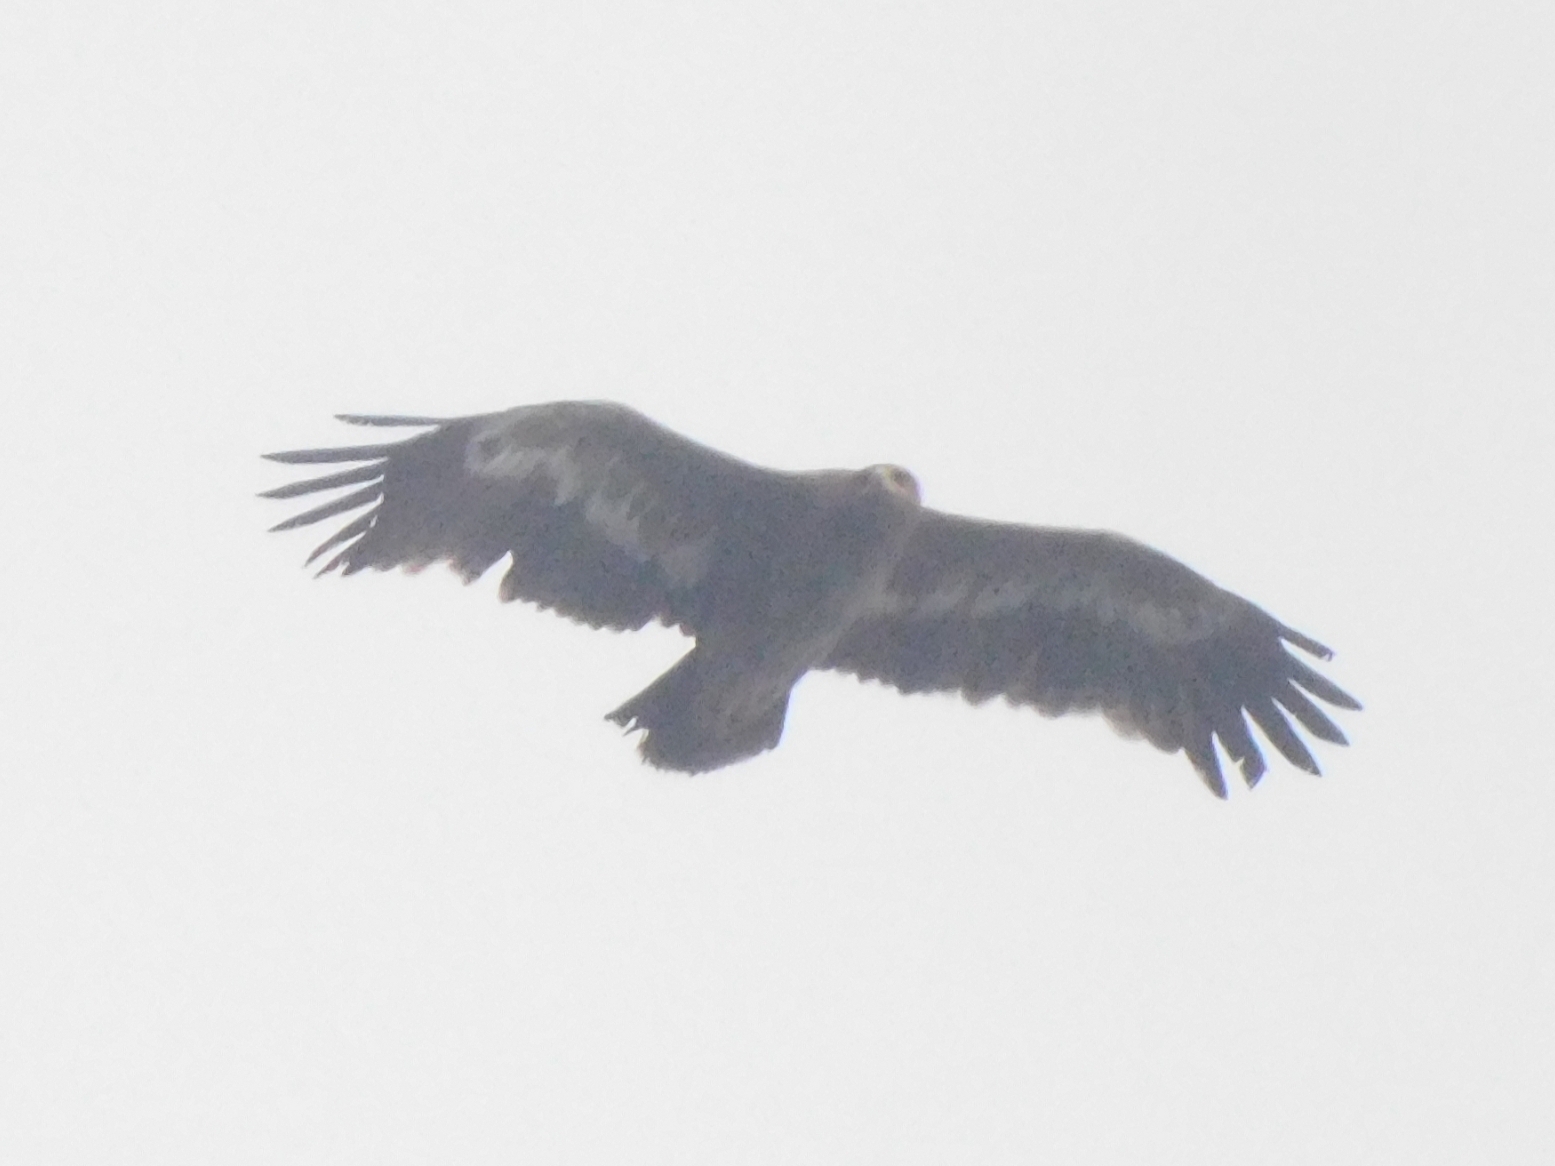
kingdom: Animalia
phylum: Chordata
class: Aves
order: Accipitriformes
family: Accipitridae
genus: Aquila
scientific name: Aquila nipalensis
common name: Steppe eagle
